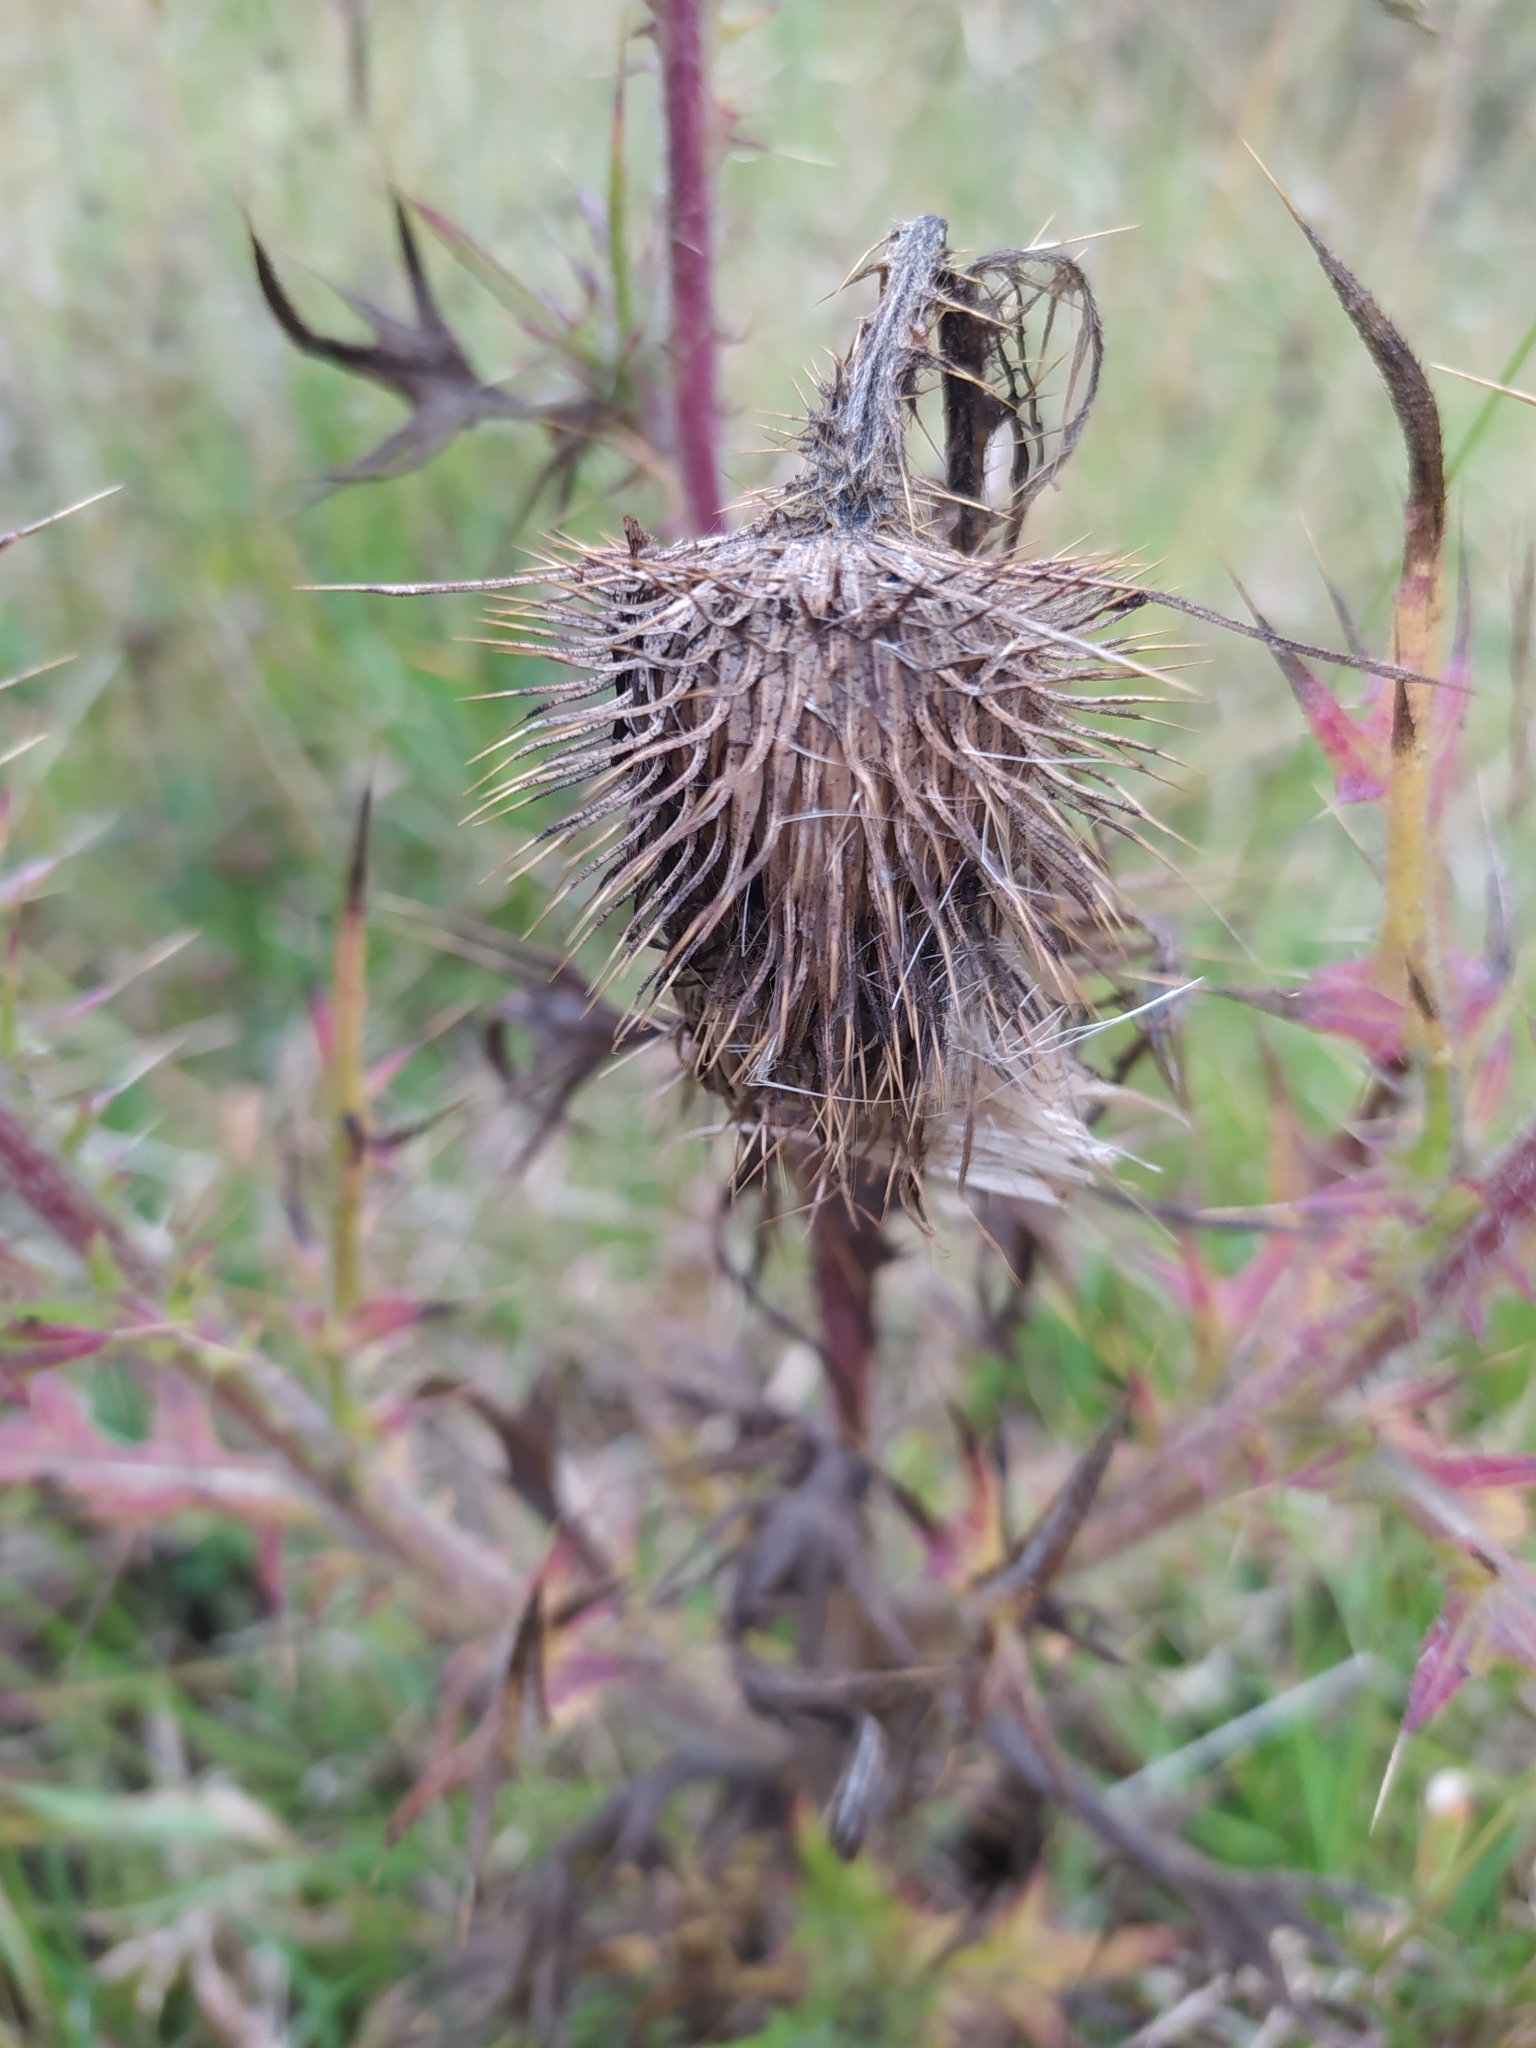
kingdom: Plantae
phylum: Tracheophyta
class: Magnoliopsida
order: Asterales
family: Asteraceae
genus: Cirsium
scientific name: Cirsium vulgare
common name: Bull thistle
